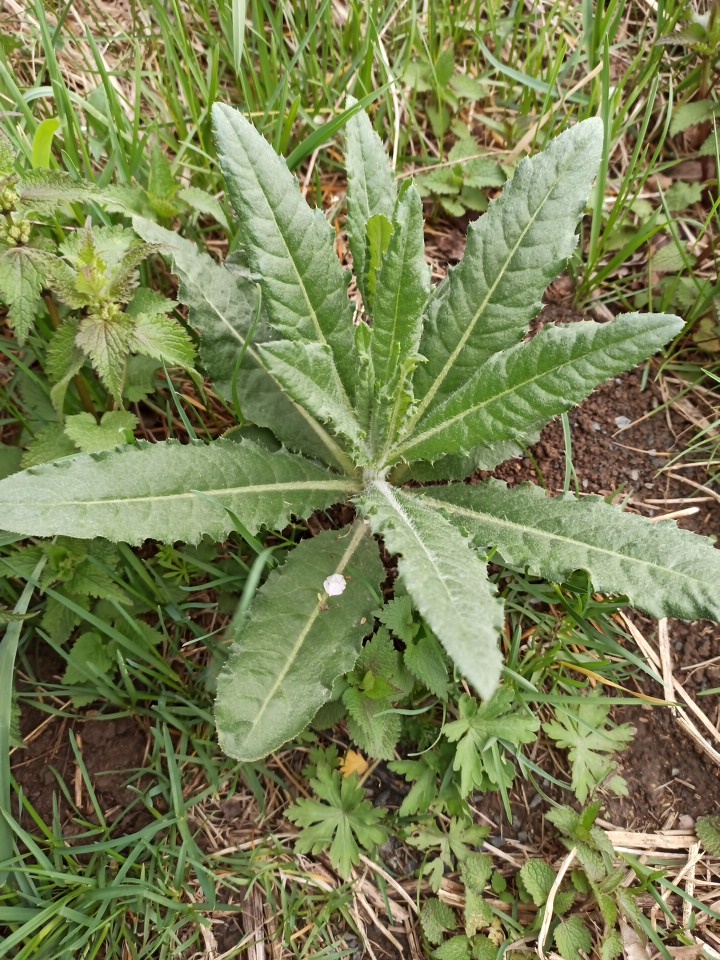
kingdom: Plantae
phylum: Tracheophyta
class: Magnoliopsida
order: Asterales
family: Asteraceae
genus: Cirsium
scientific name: Cirsium arvense
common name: Creeping thistle
